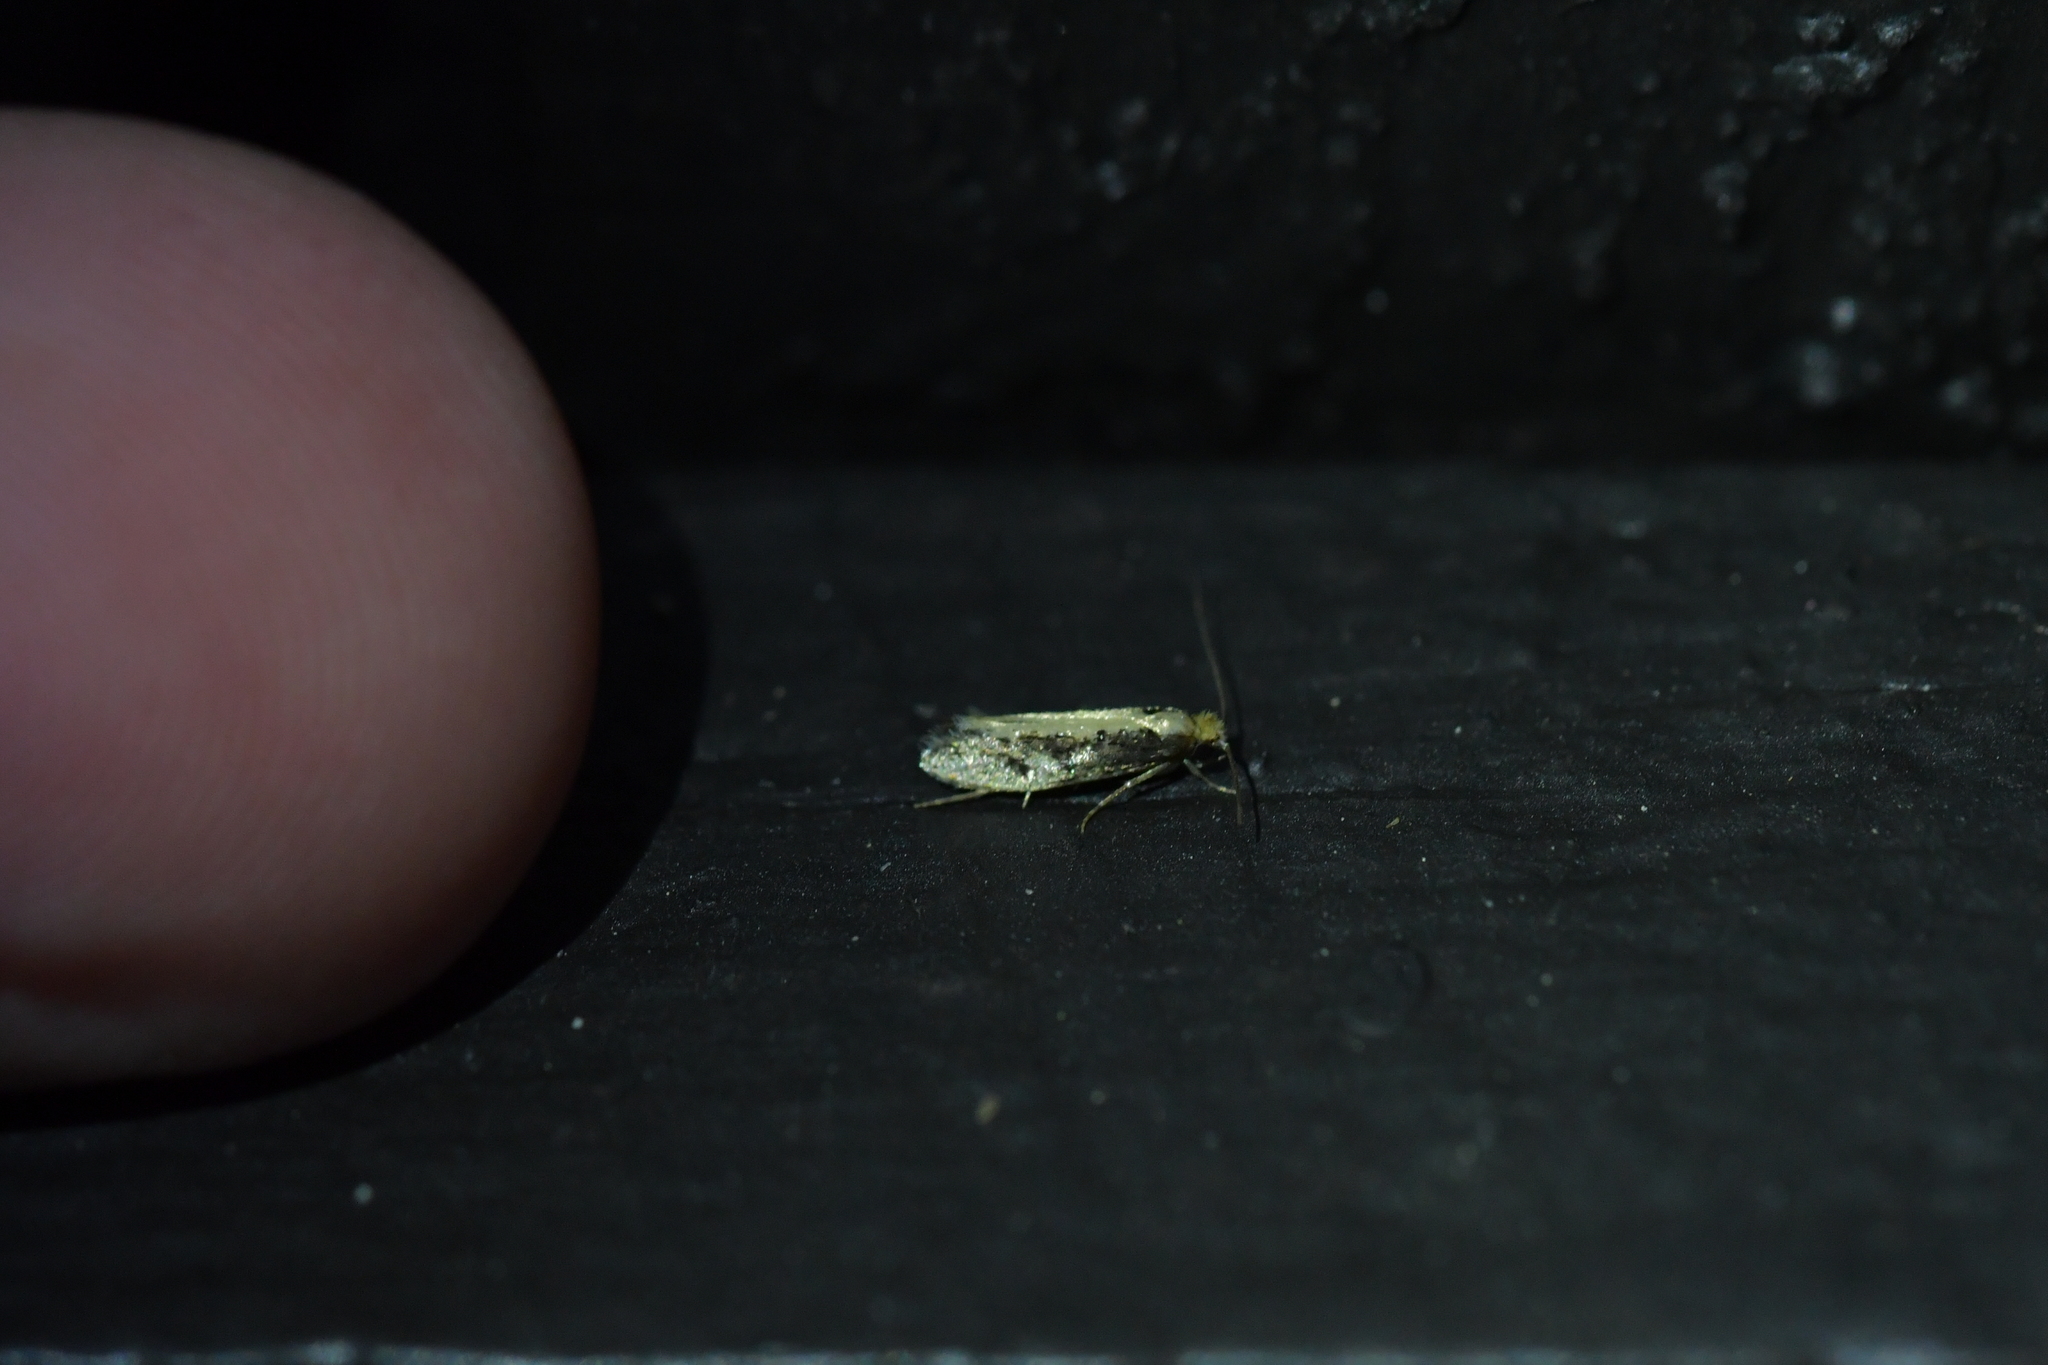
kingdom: Animalia
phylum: Arthropoda
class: Insecta
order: Lepidoptera
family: Tineidae
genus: Monopis
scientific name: Monopis crocicapitella
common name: Moth
